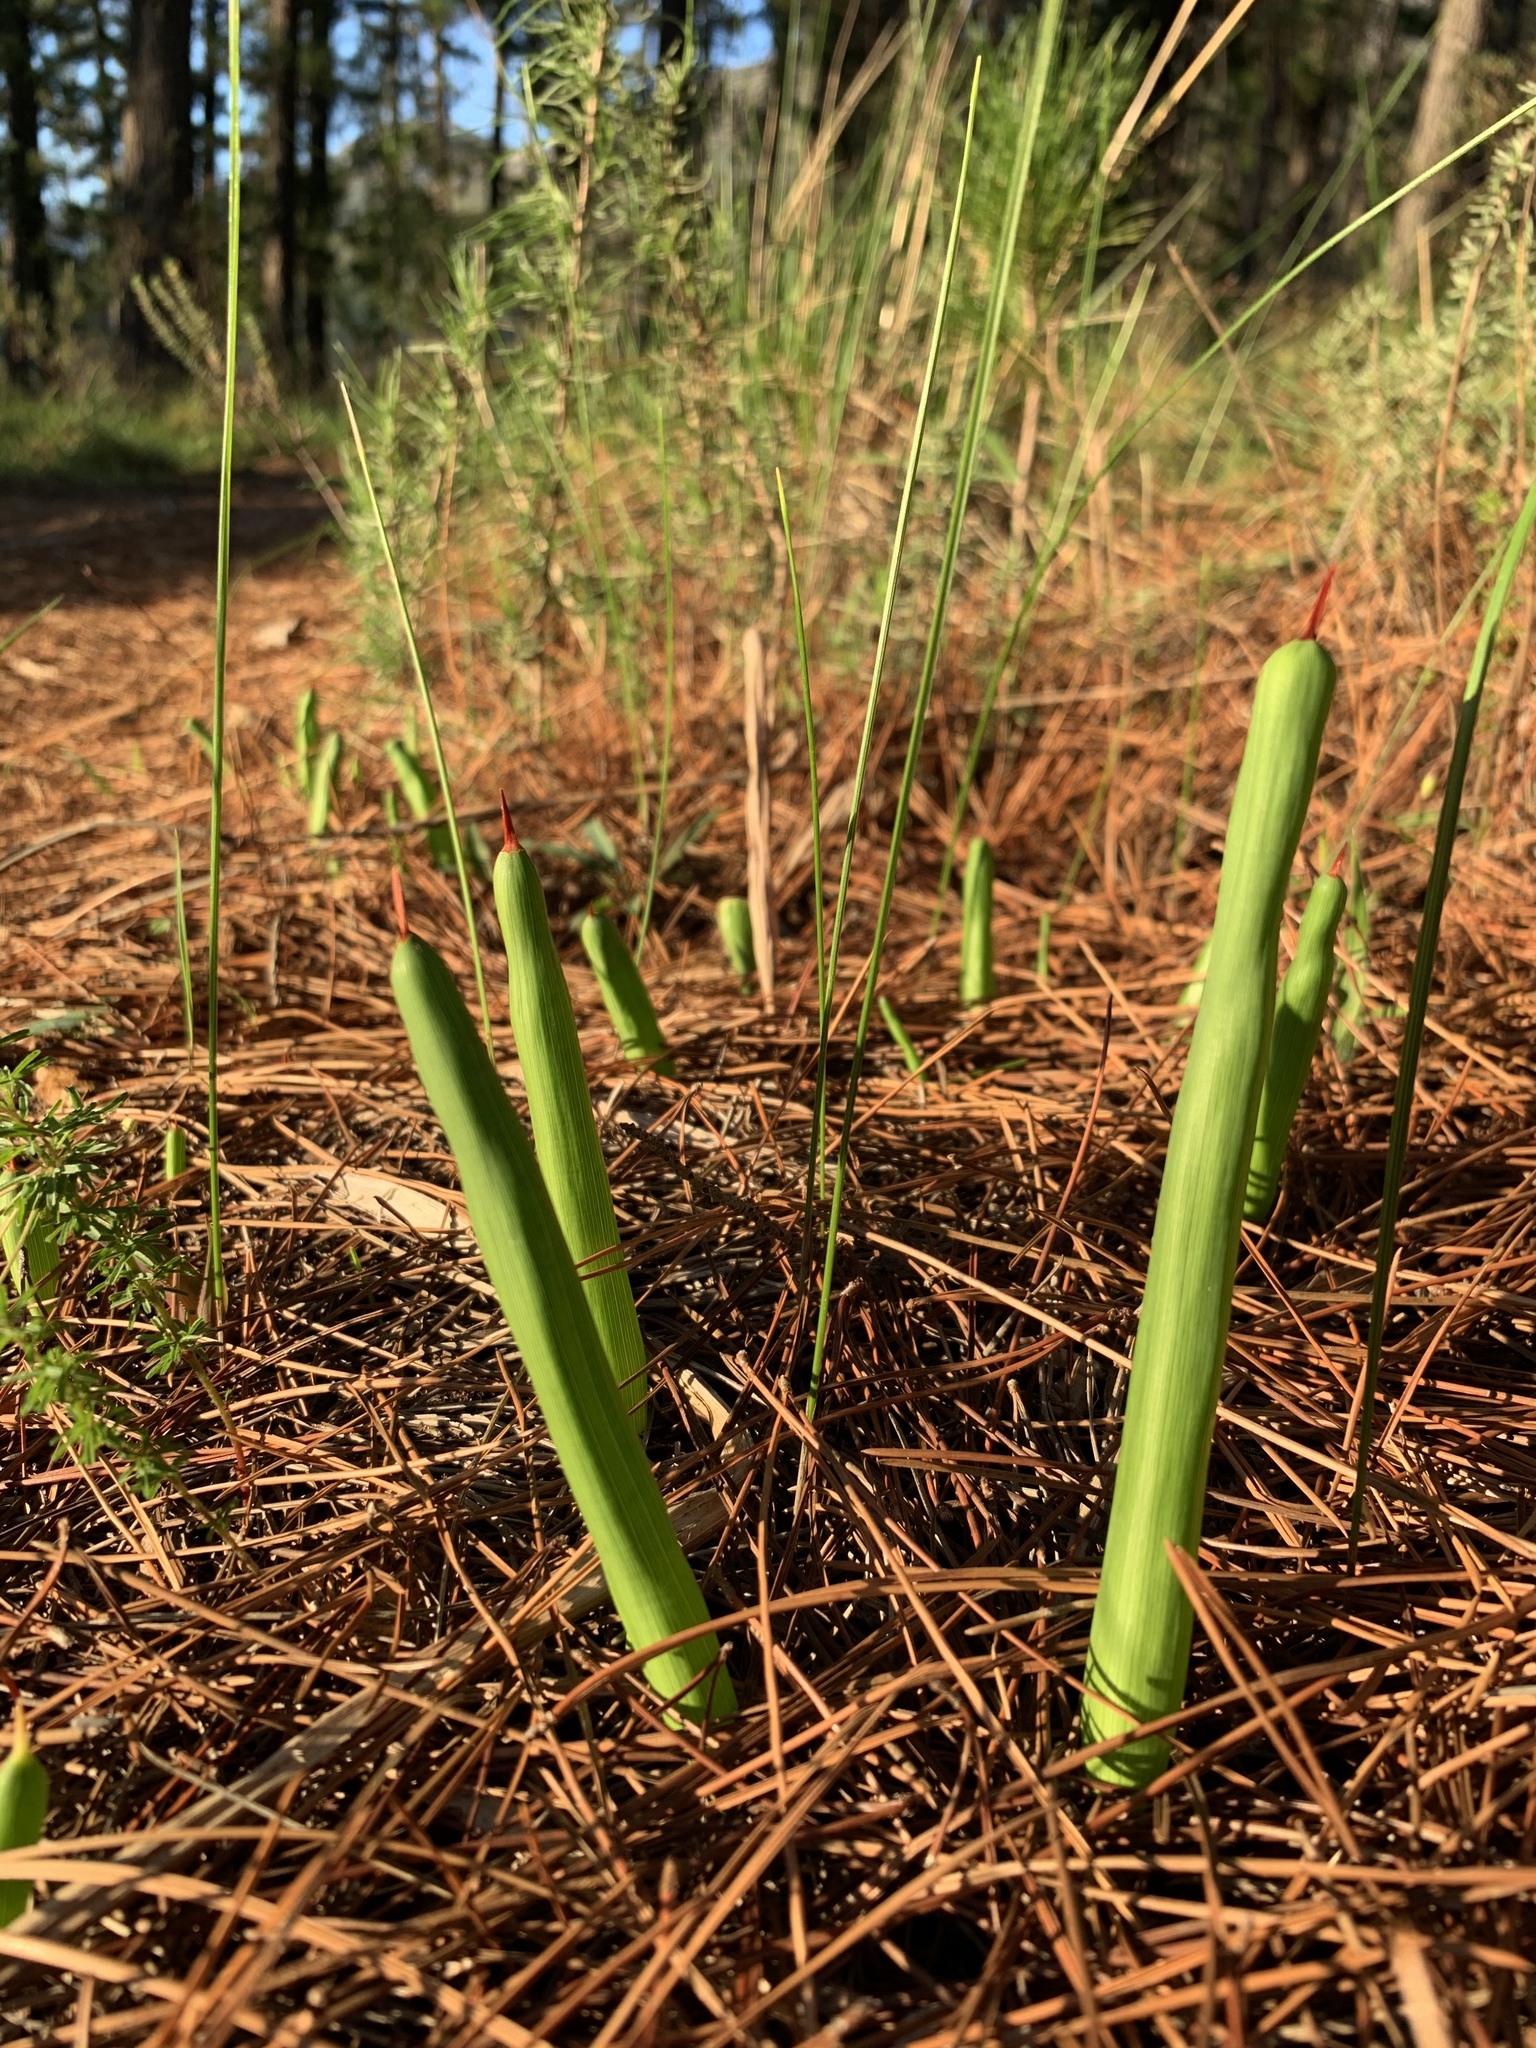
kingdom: Plantae
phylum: Tracheophyta
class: Liliopsida
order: Asparagales
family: Iridaceae
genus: Micranthus
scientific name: Micranthus tubulosus
